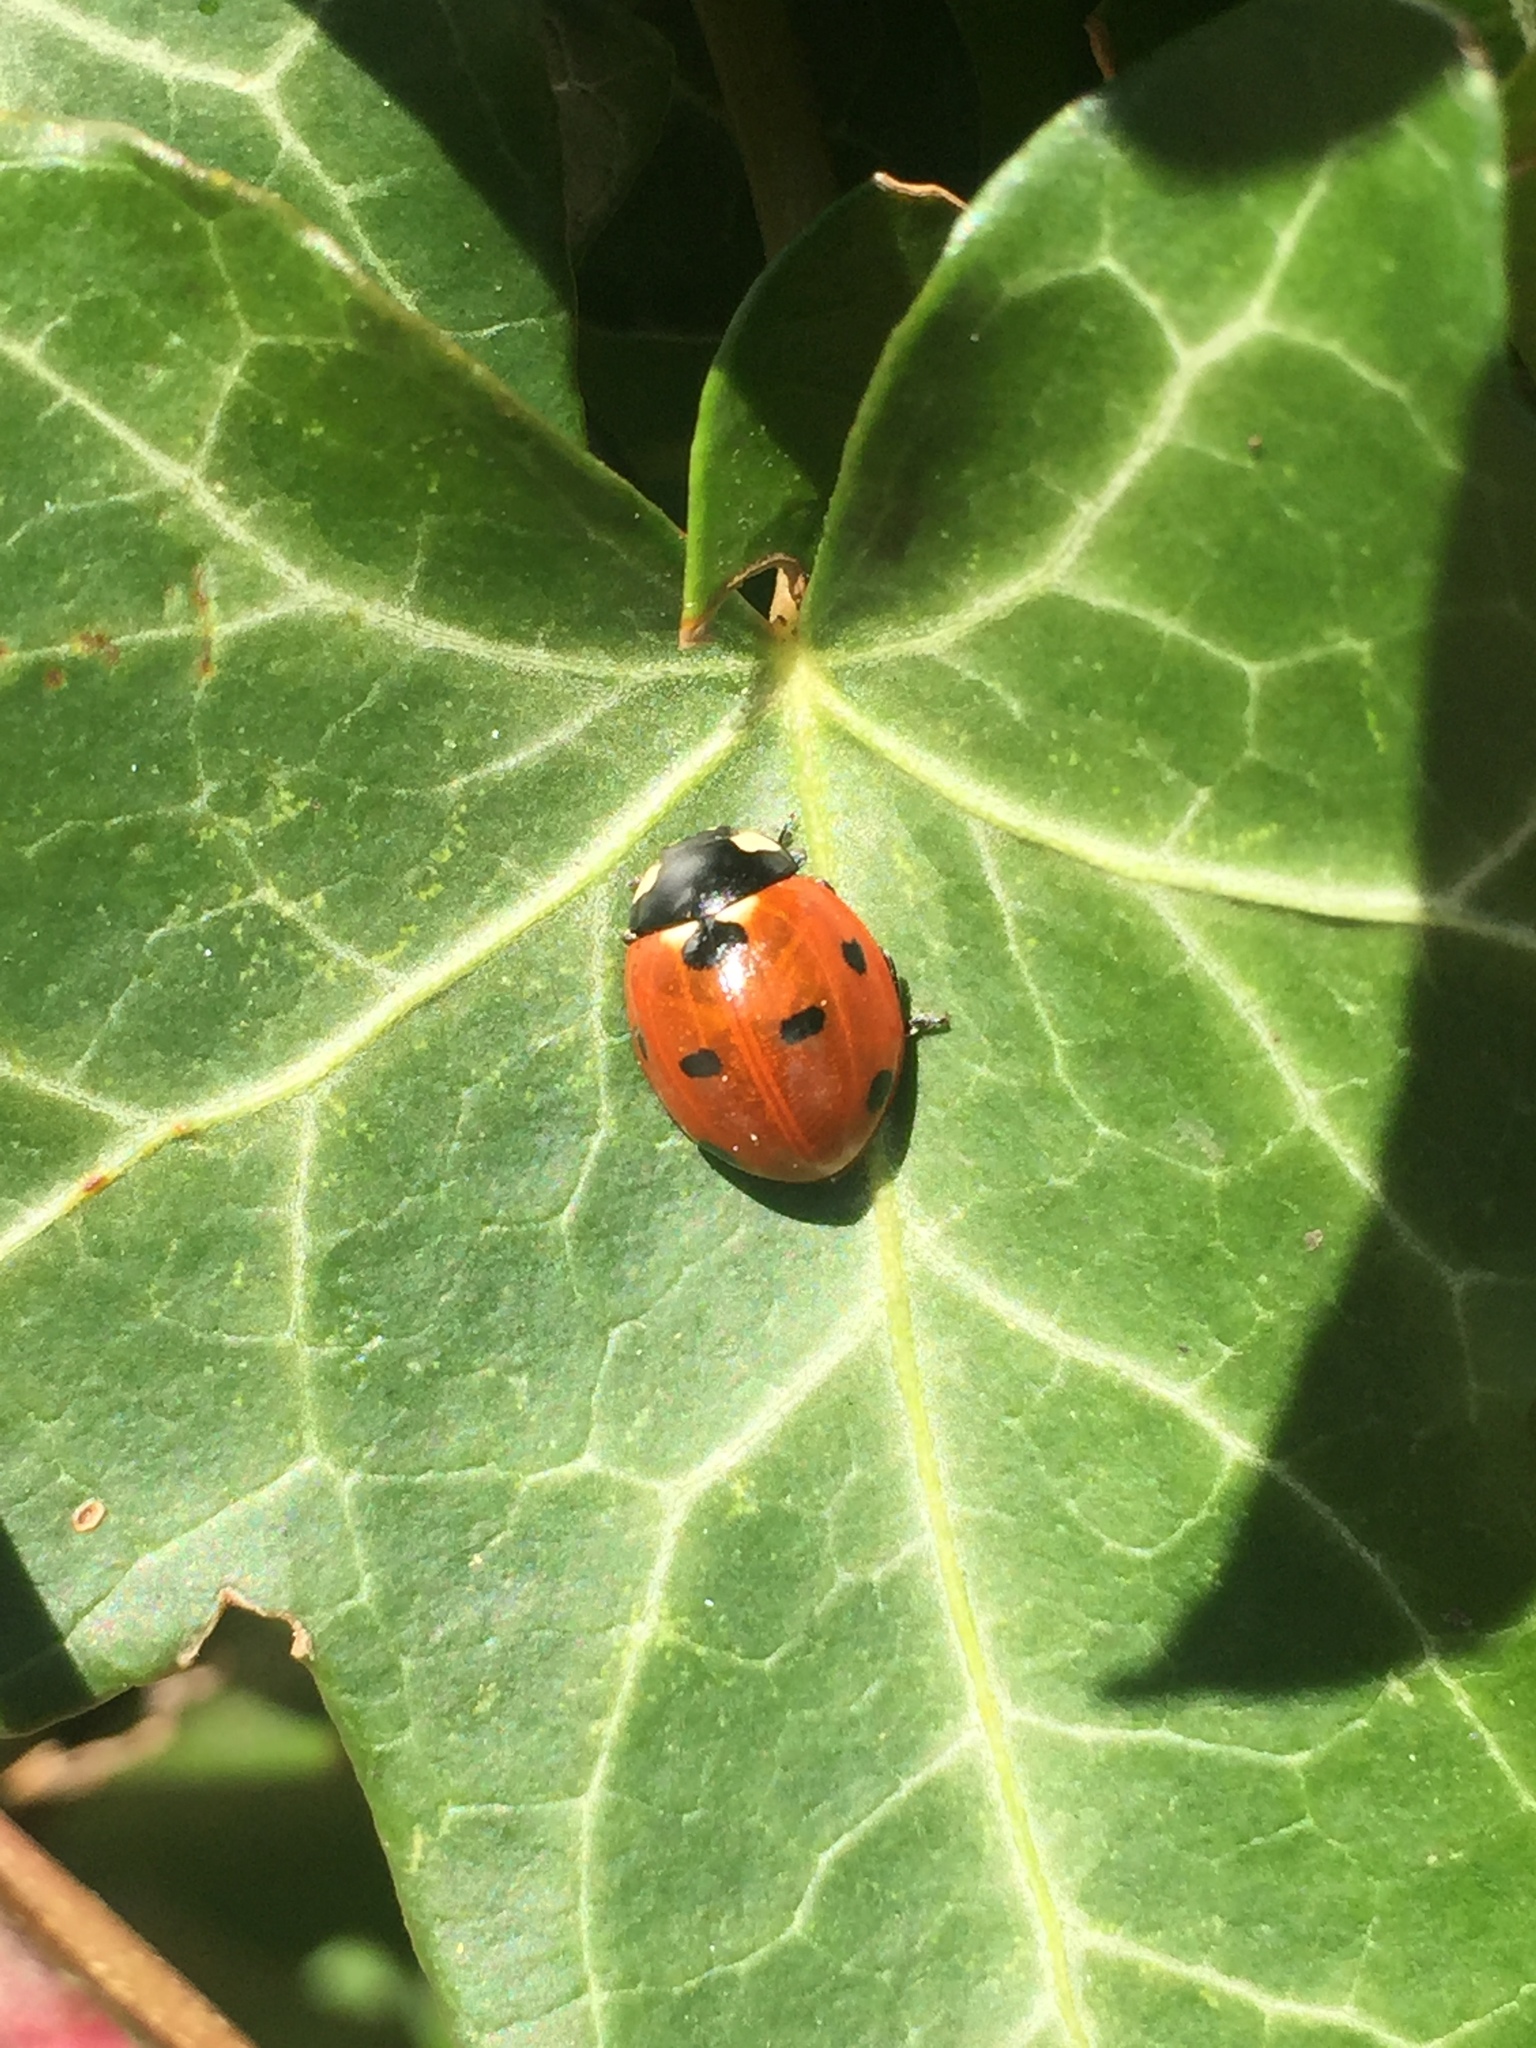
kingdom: Animalia
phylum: Arthropoda
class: Insecta
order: Coleoptera
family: Coccinellidae
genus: Coccinella
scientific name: Coccinella septempunctata
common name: Sevenspotted lady beetle
